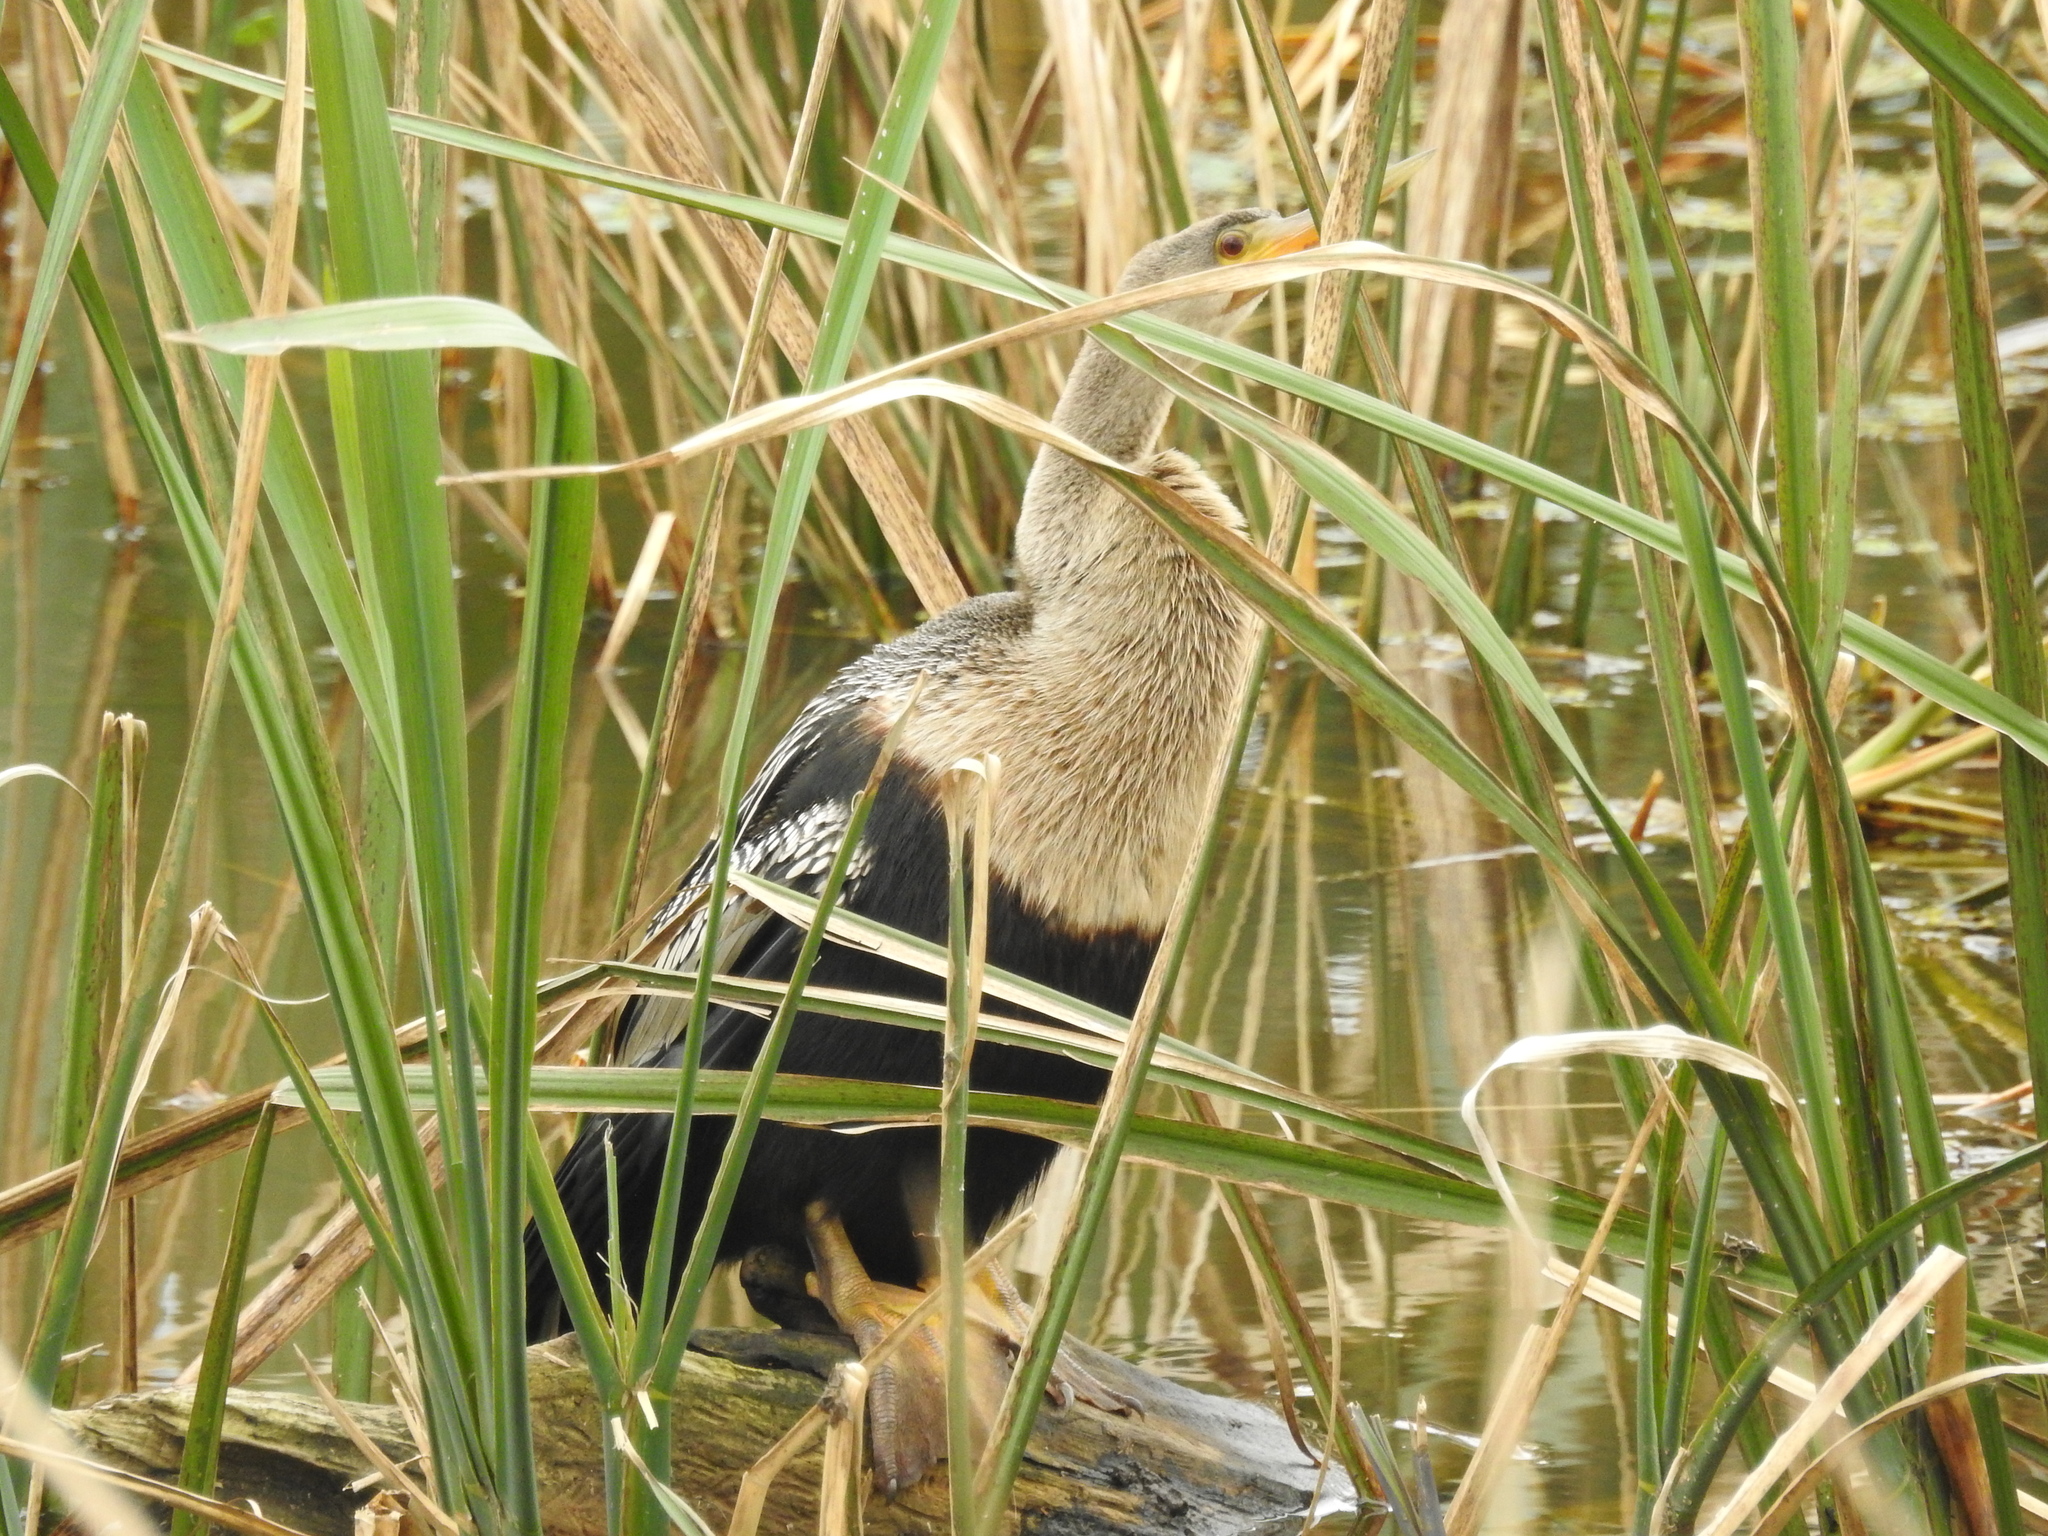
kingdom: Animalia
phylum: Chordata
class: Aves
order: Suliformes
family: Anhingidae
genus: Anhinga
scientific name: Anhinga anhinga
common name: Anhinga
